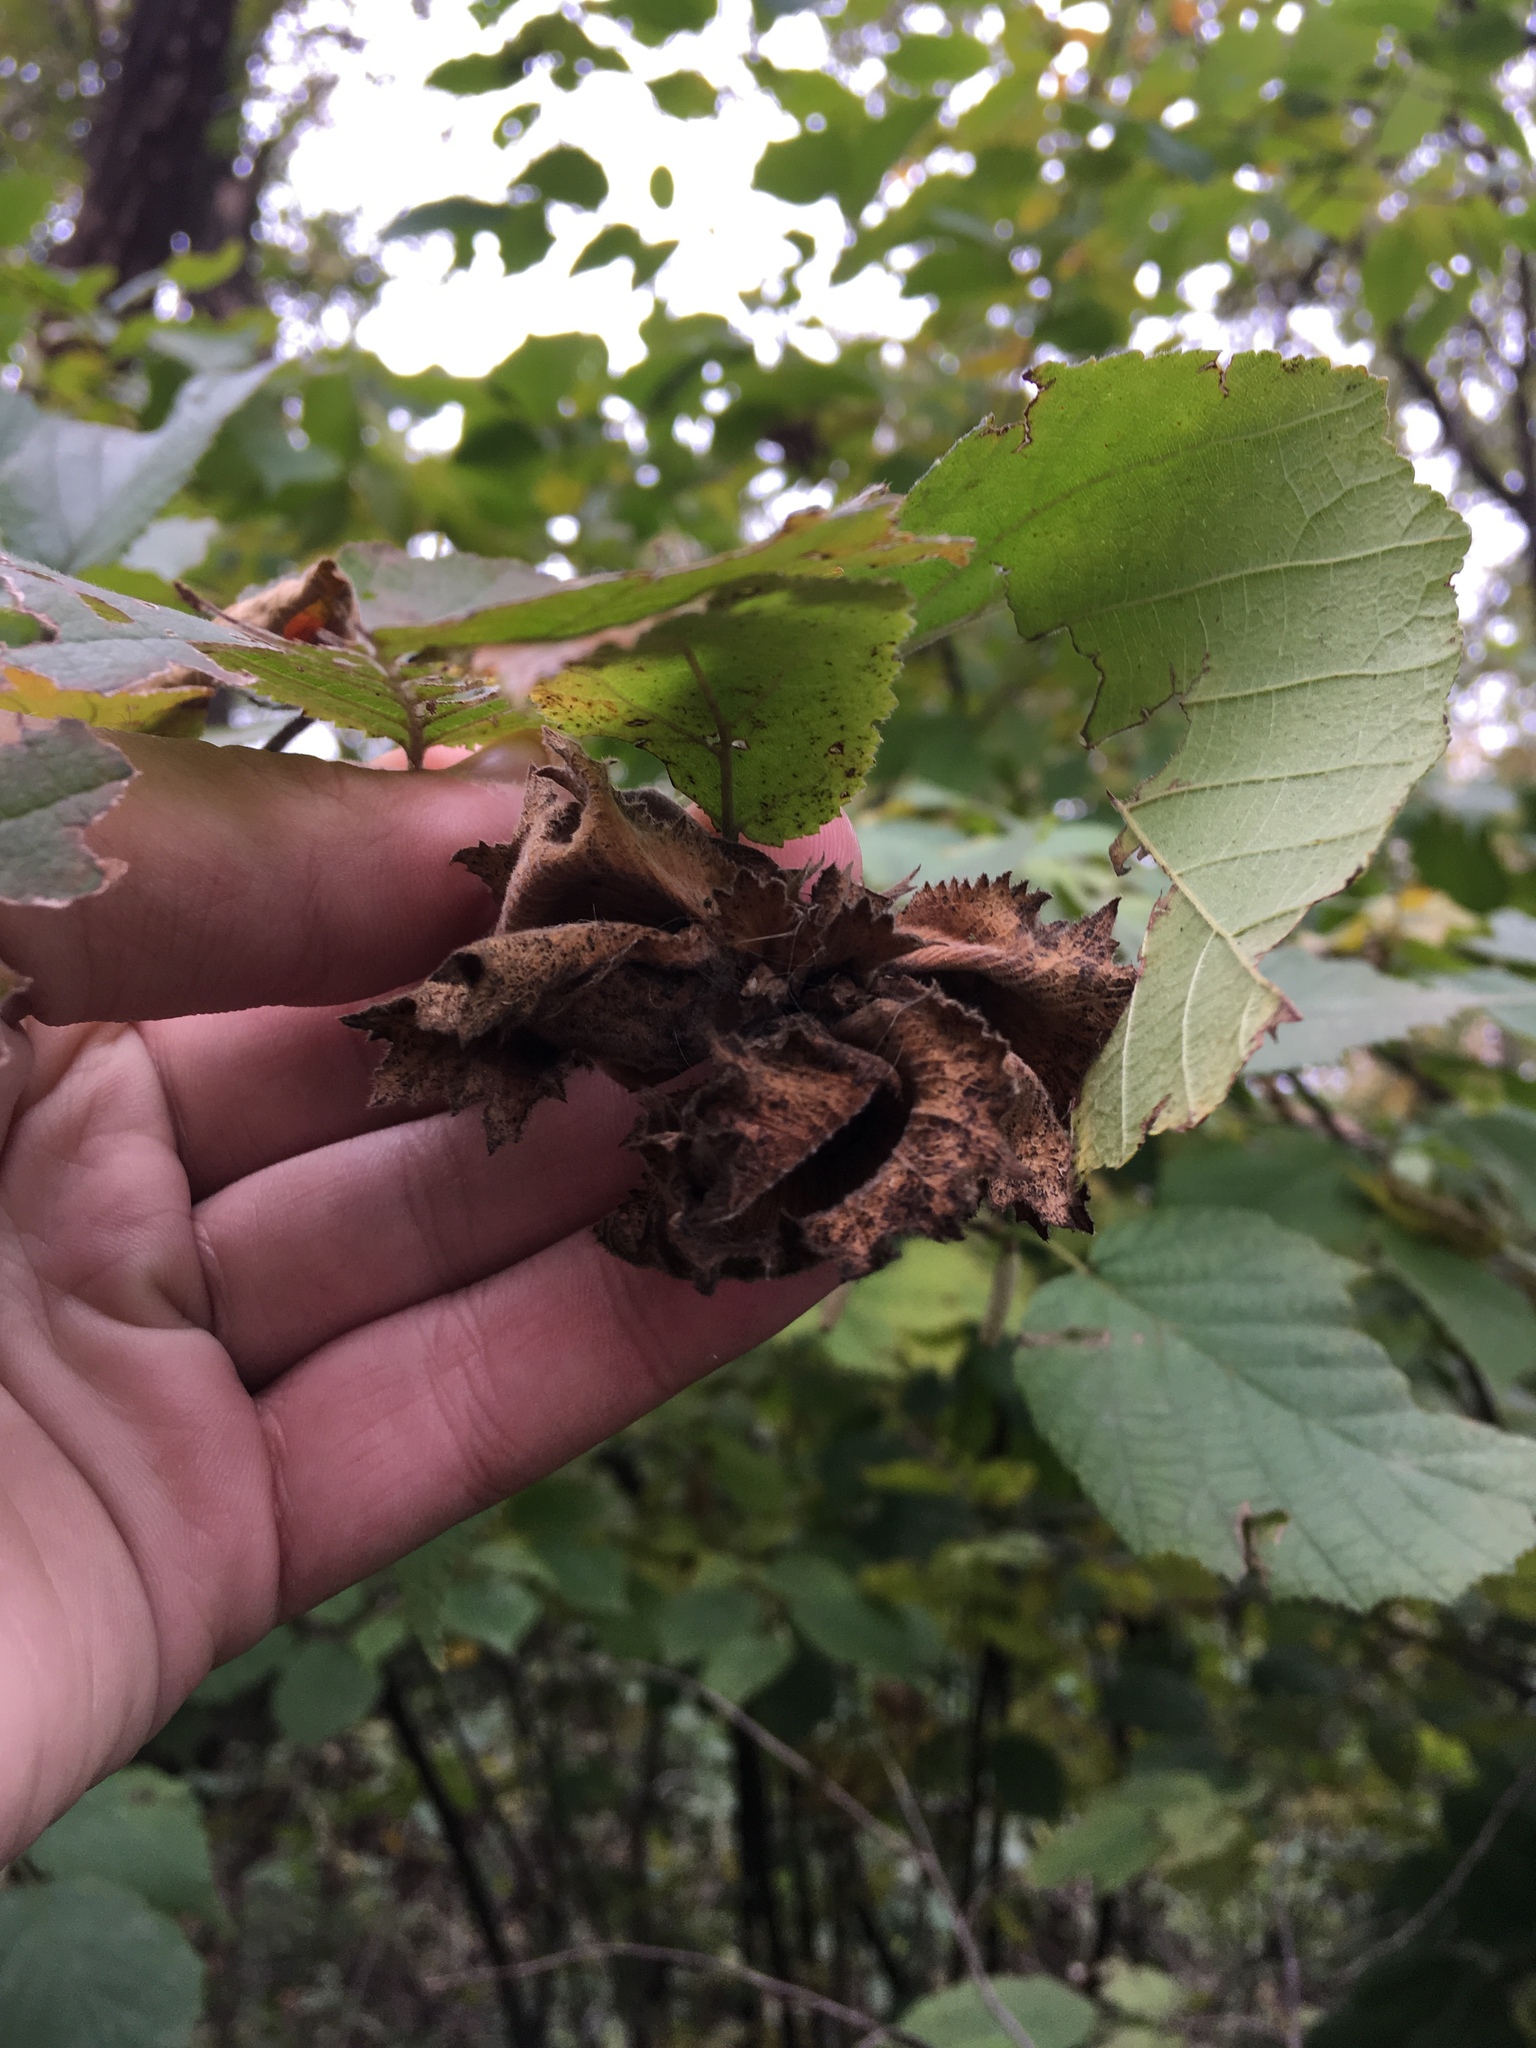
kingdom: Plantae
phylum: Tracheophyta
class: Magnoliopsida
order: Fagales
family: Betulaceae
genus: Corylus
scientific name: Corylus americana
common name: American hazel
